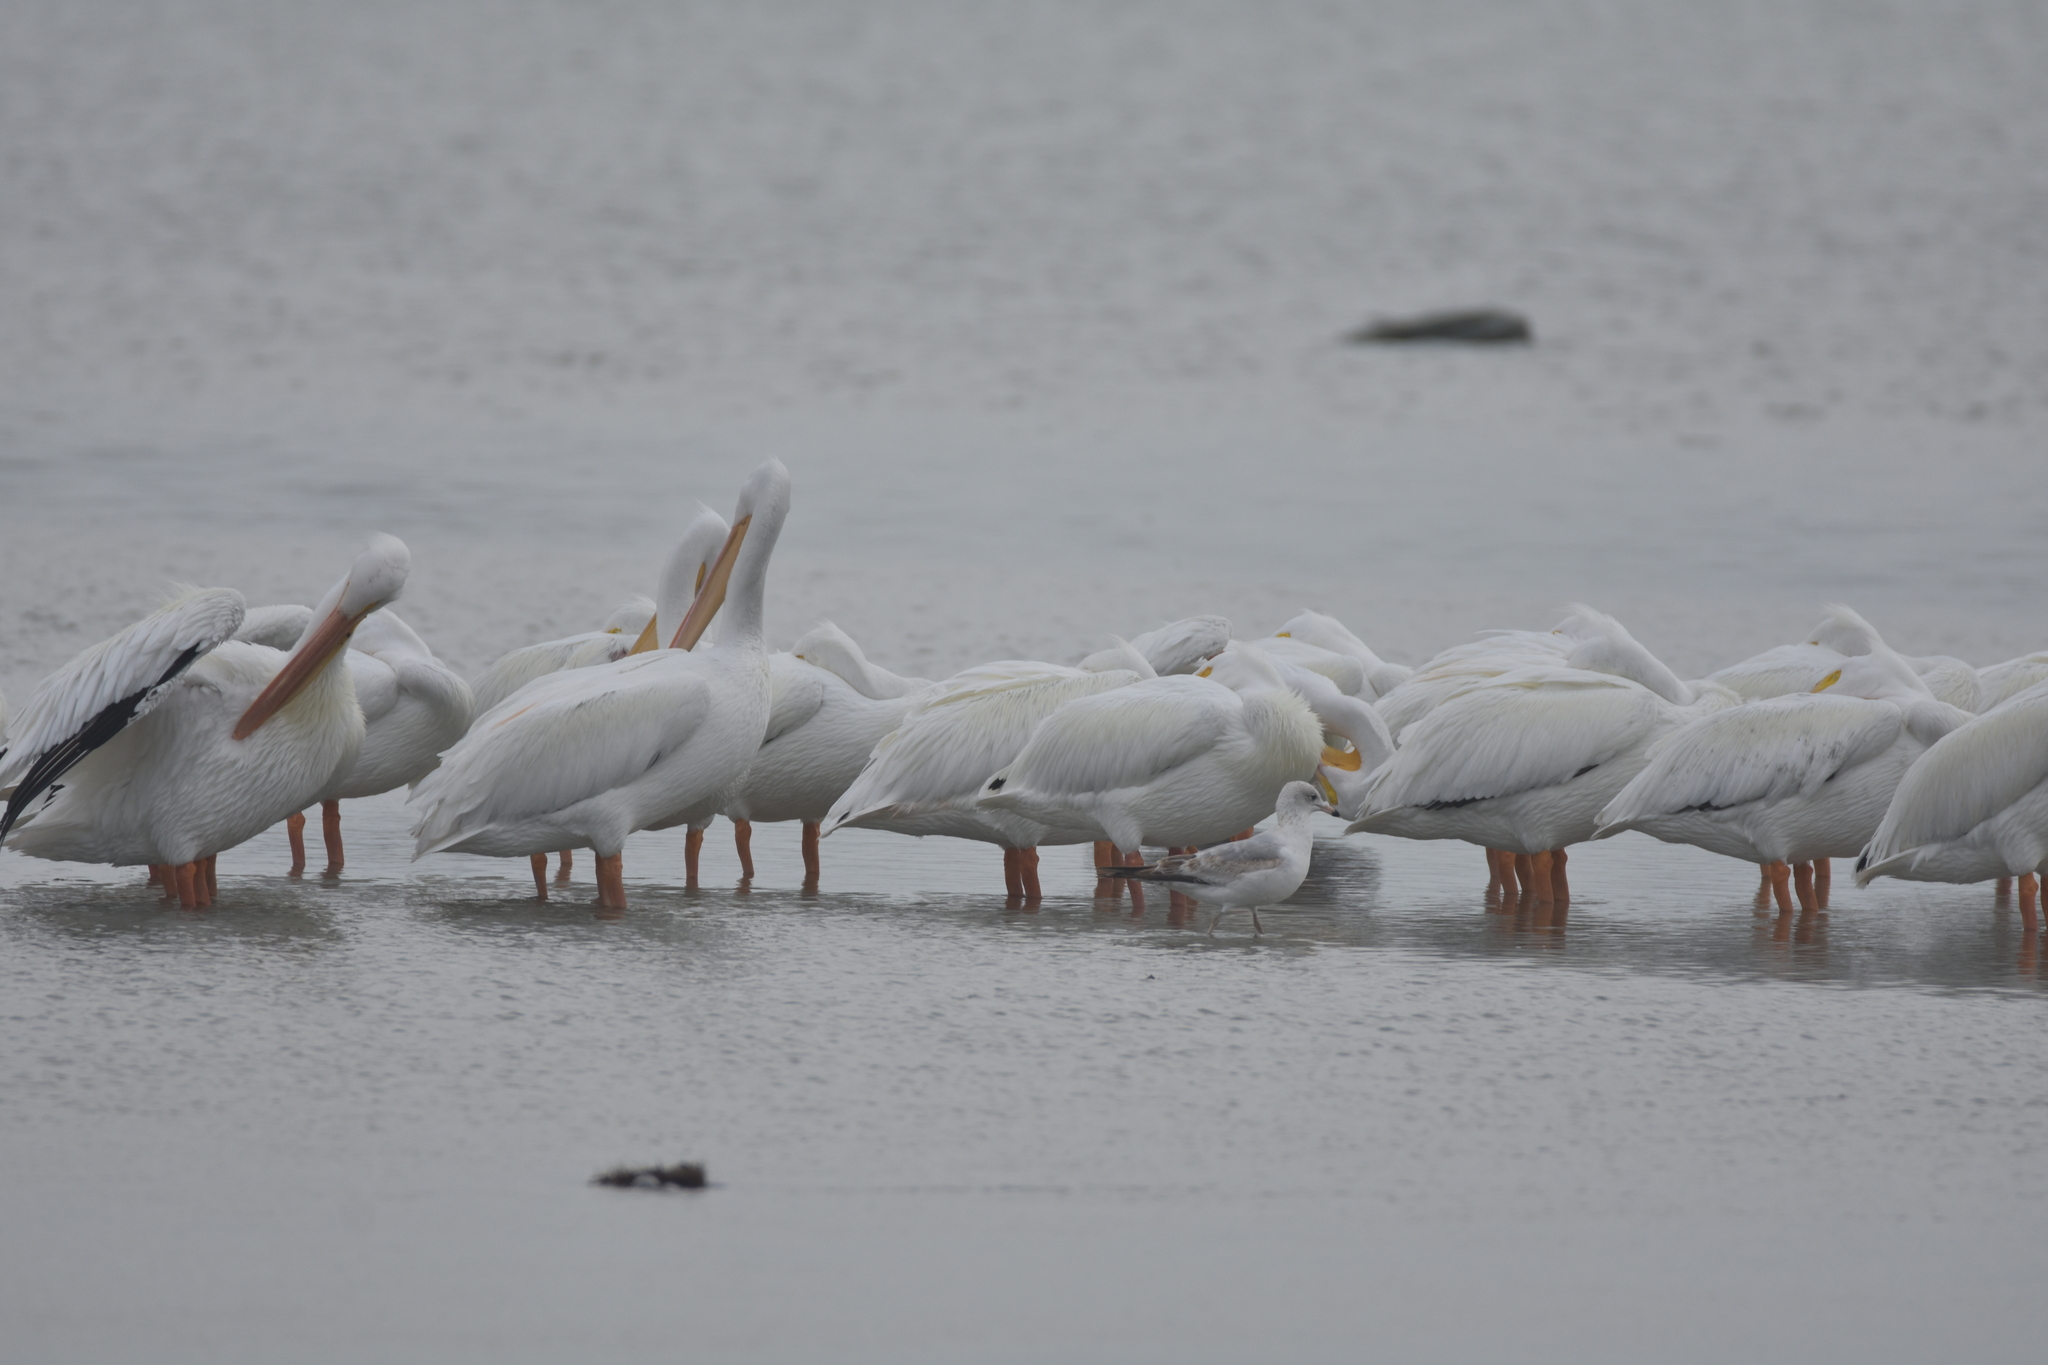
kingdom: Animalia
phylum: Chordata
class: Aves
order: Charadriiformes
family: Laridae
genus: Larus
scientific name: Larus delawarensis
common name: Ring-billed gull
